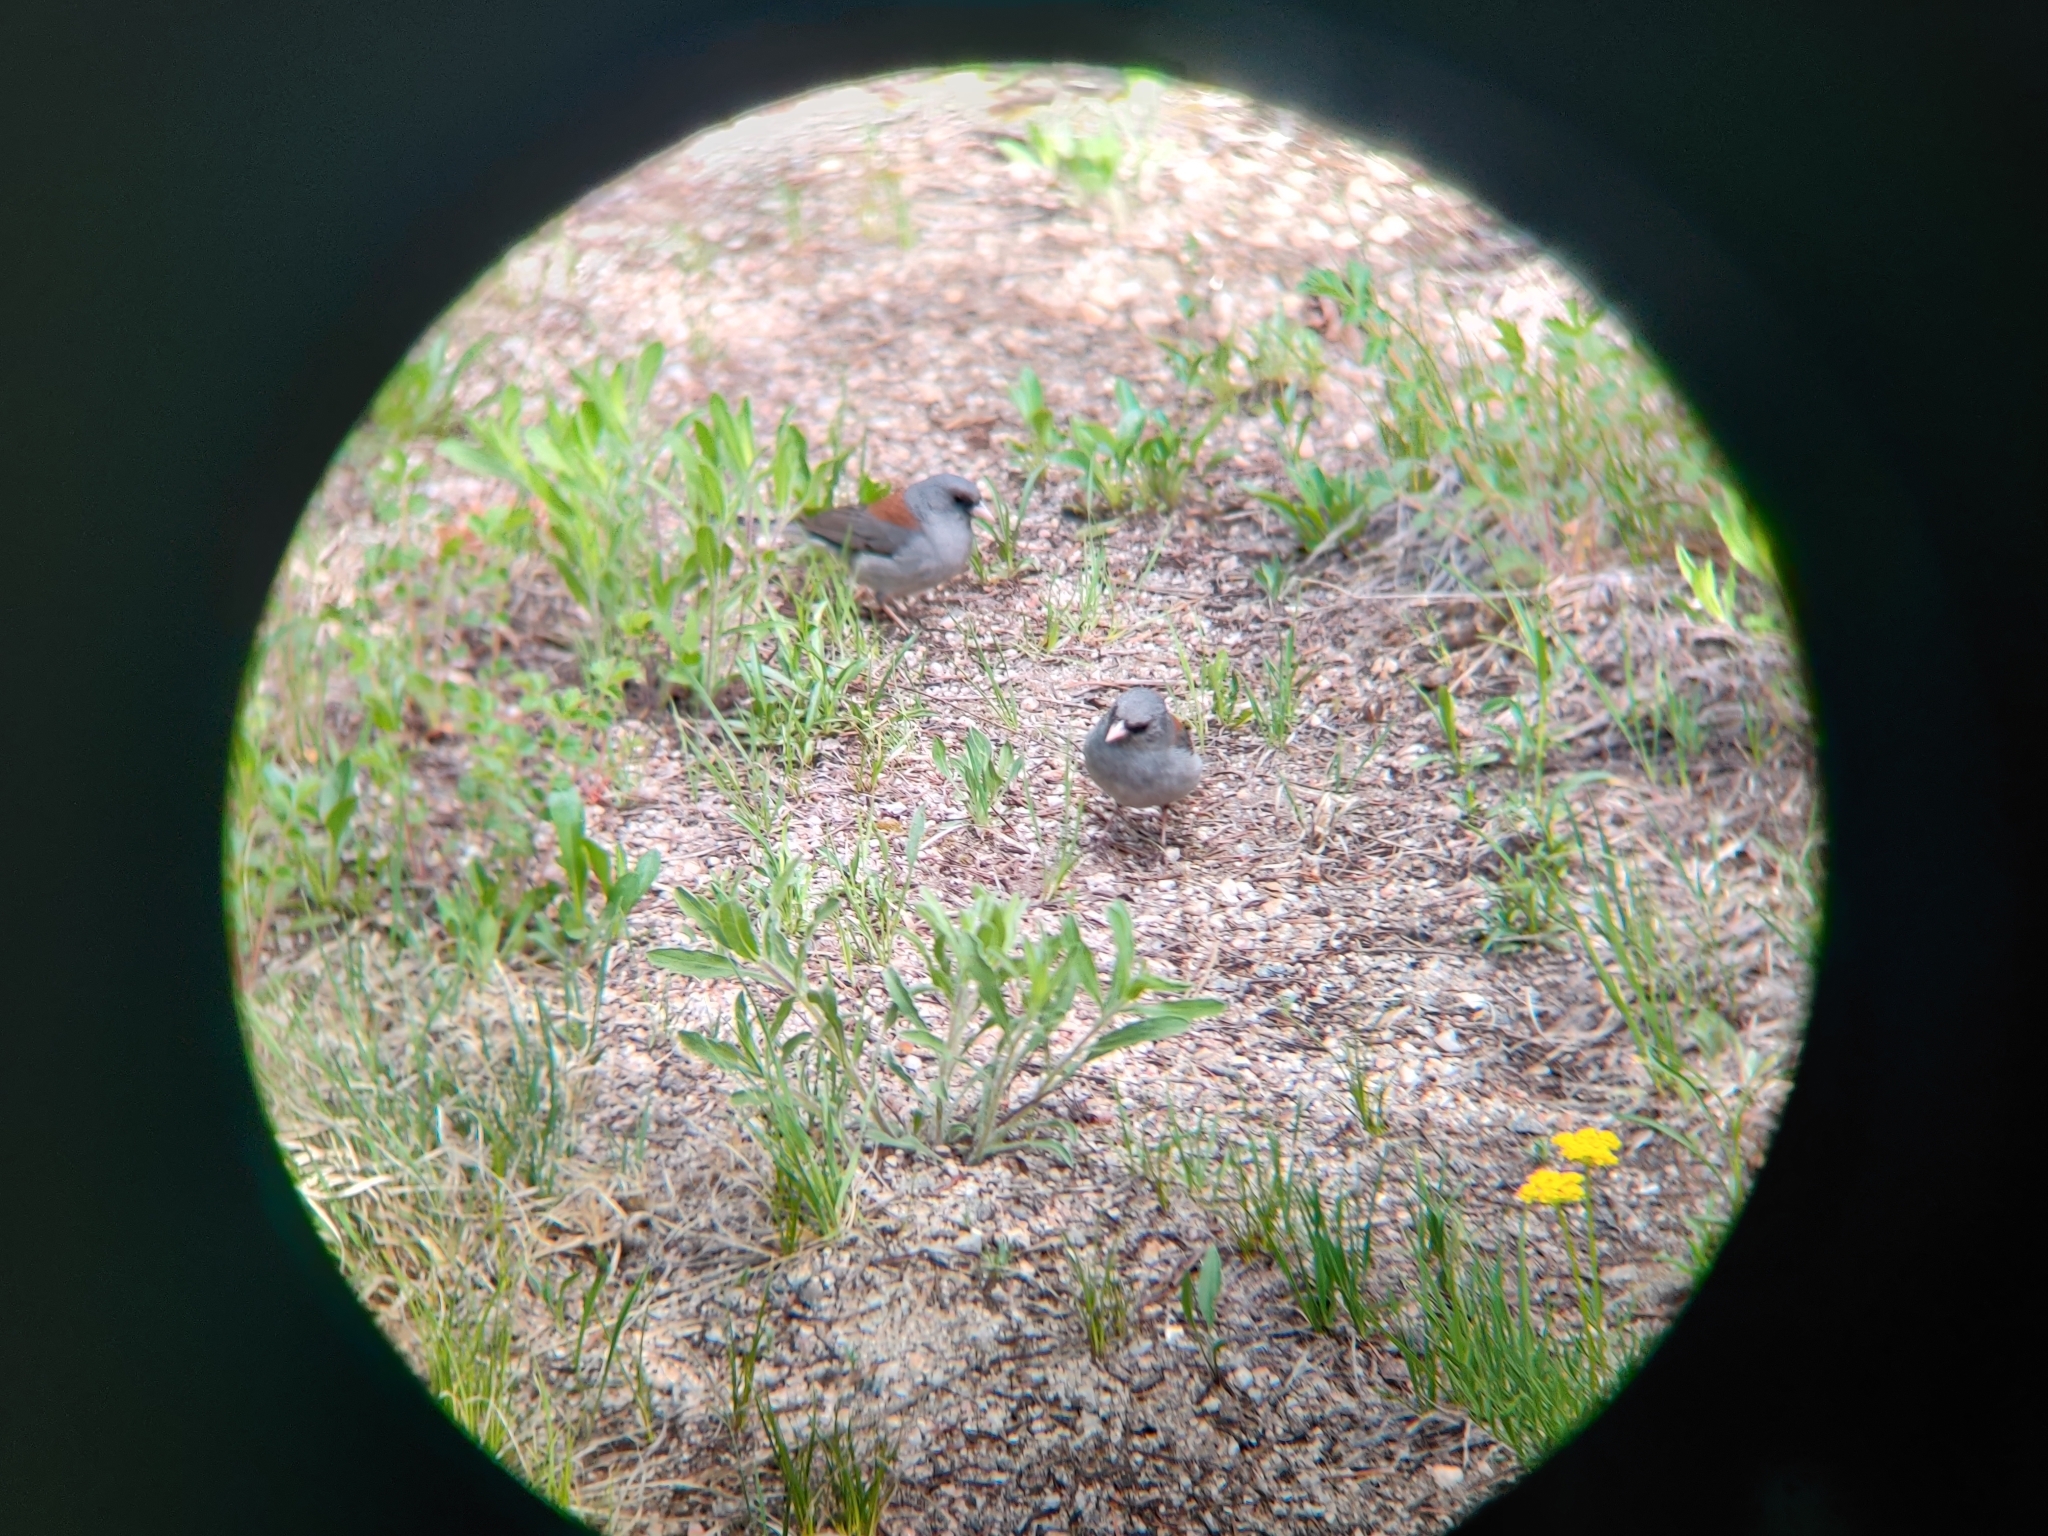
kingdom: Animalia
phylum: Chordata
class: Aves
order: Passeriformes
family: Passerellidae
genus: Junco
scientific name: Junco hyemalis
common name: Dark-eyed junco
